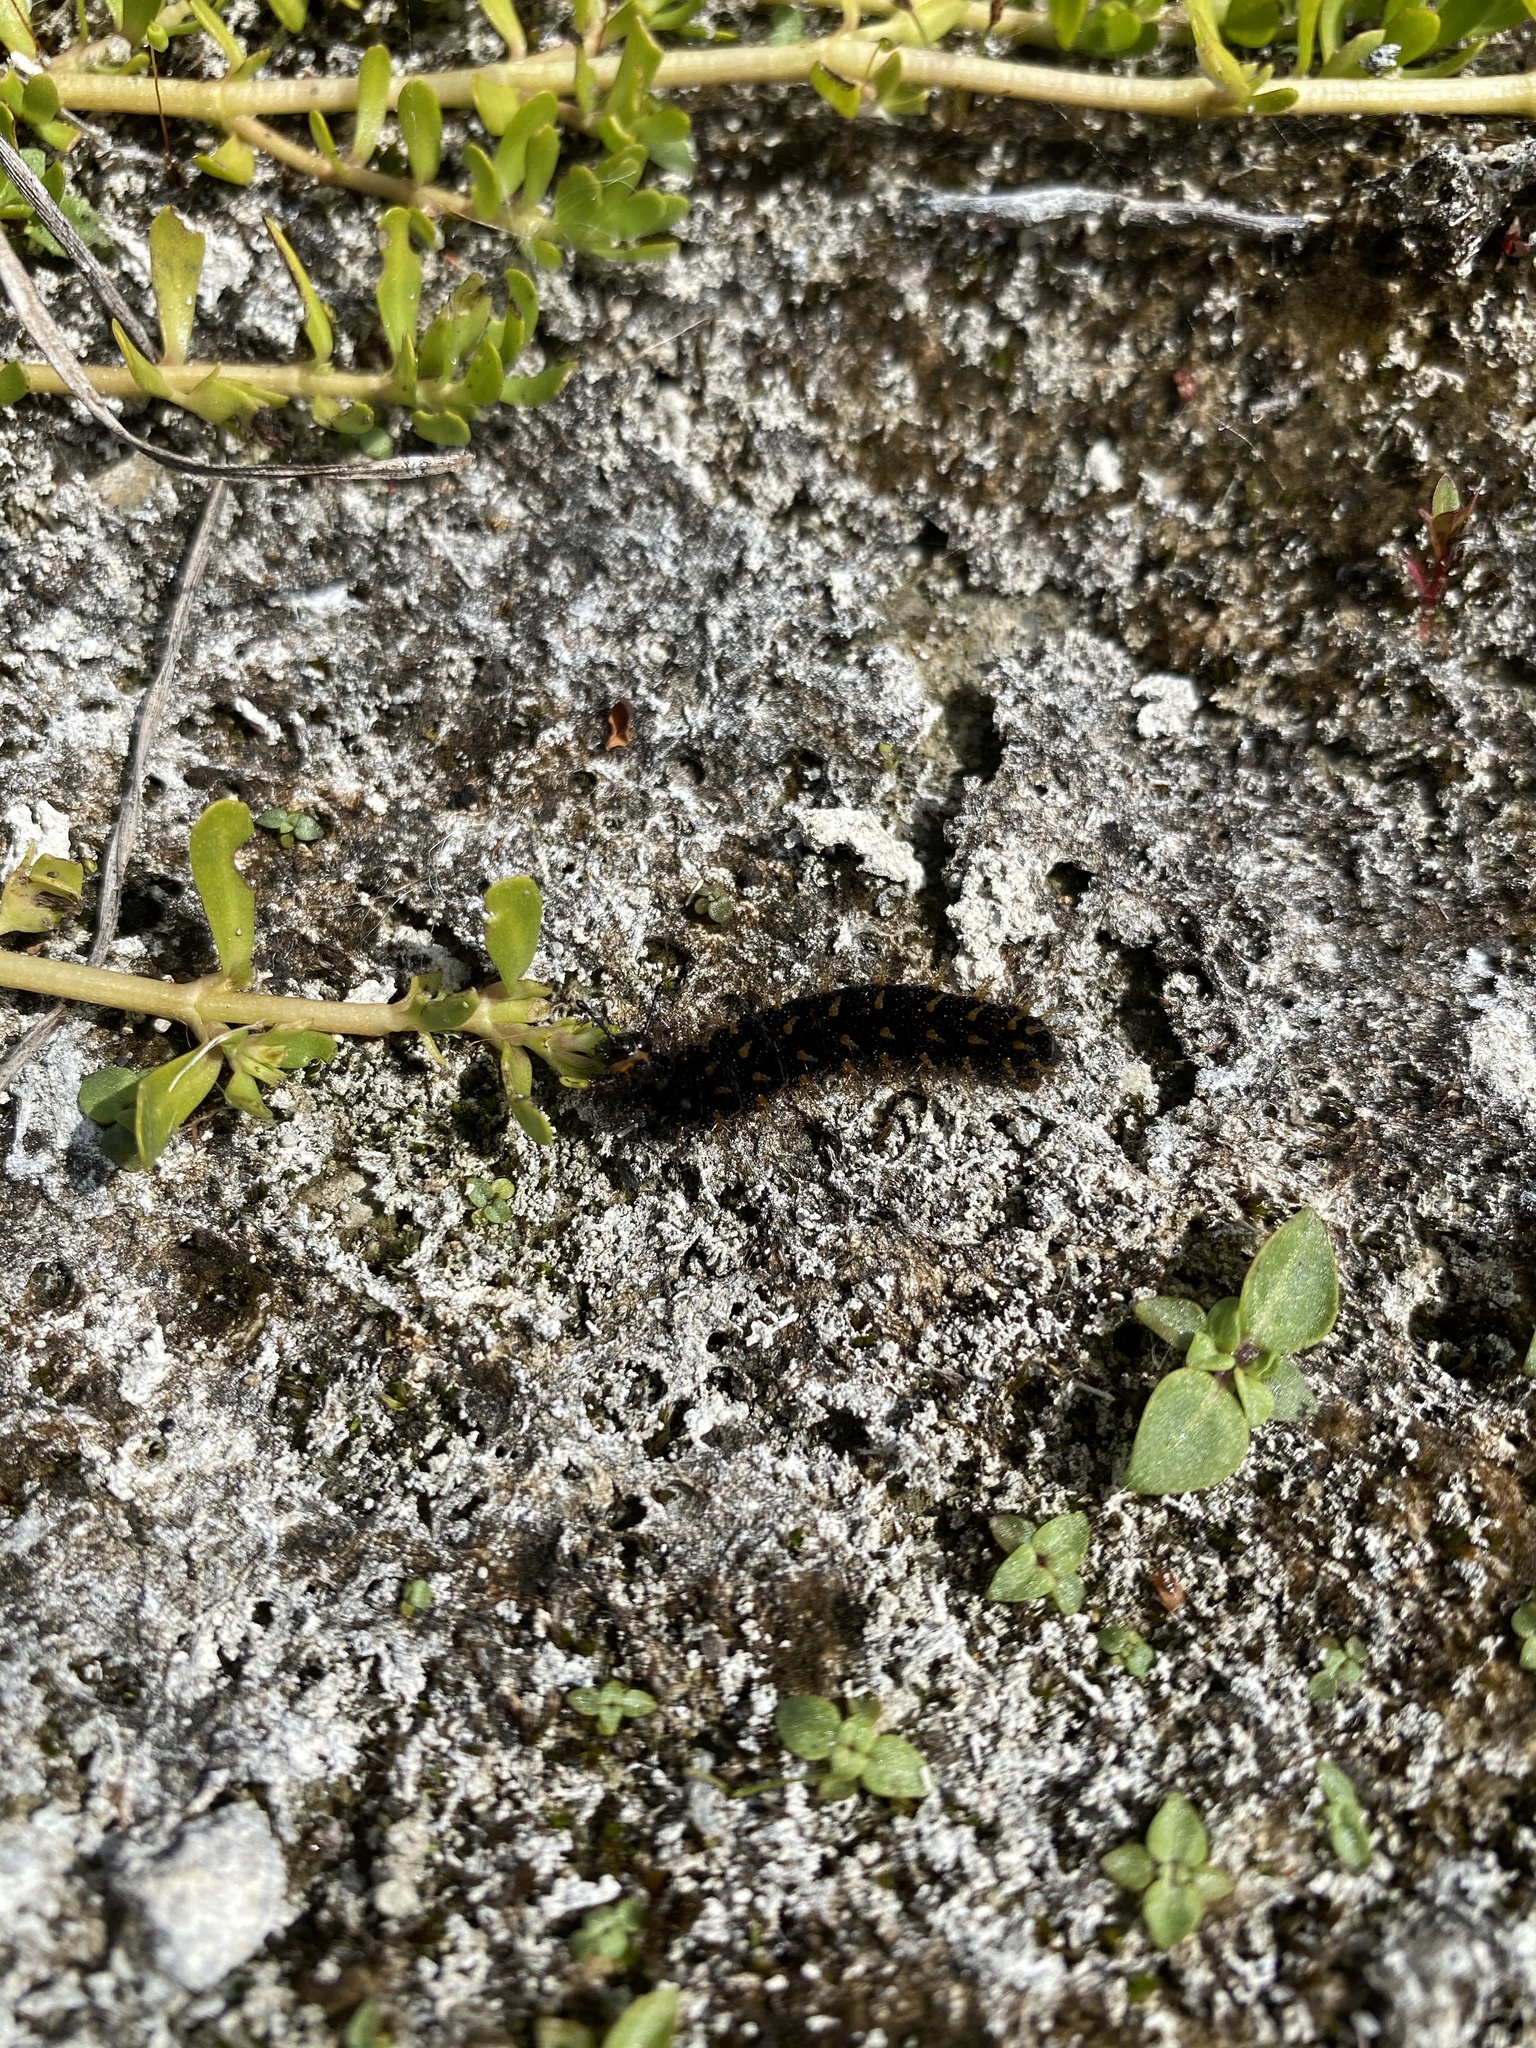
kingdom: Animalia
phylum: Arthropoda
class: Insecta
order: Lepidoptera
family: Nymphalidae
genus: Anartia
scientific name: Anartia jatrophae
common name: White peacock
